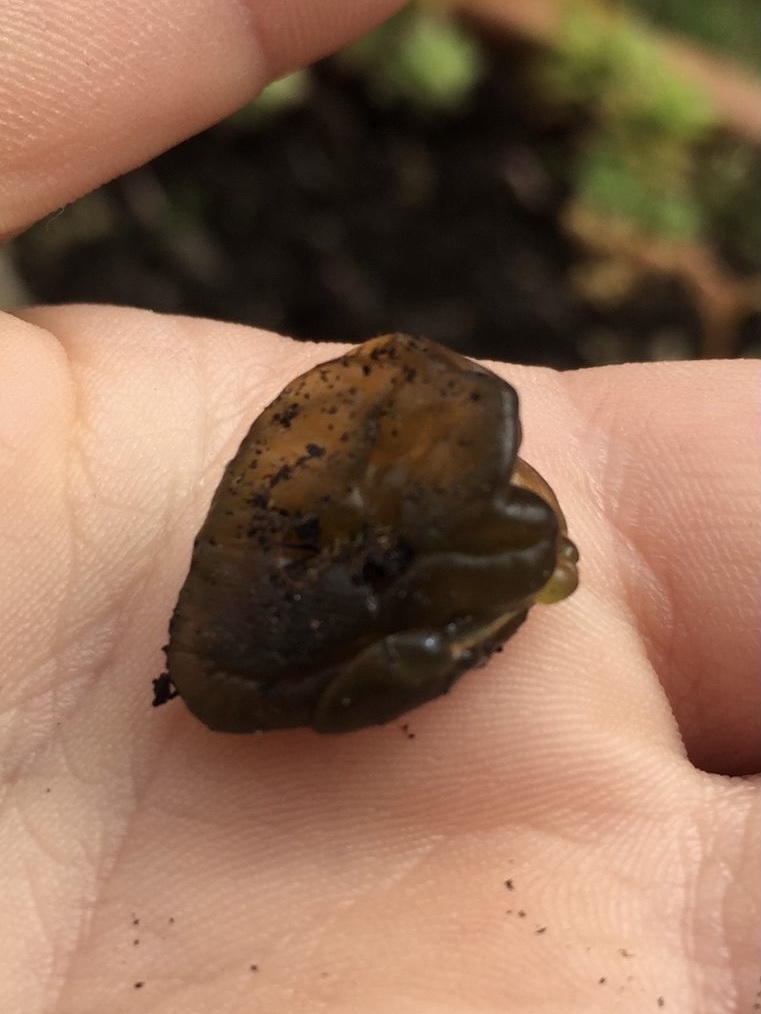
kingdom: Bacteria
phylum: Cyanobacteria
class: Cyanobacteriia
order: Cyanobacteriales
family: Nostocaceae
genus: Nostoc
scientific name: Nostoc commune
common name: Star jelly
